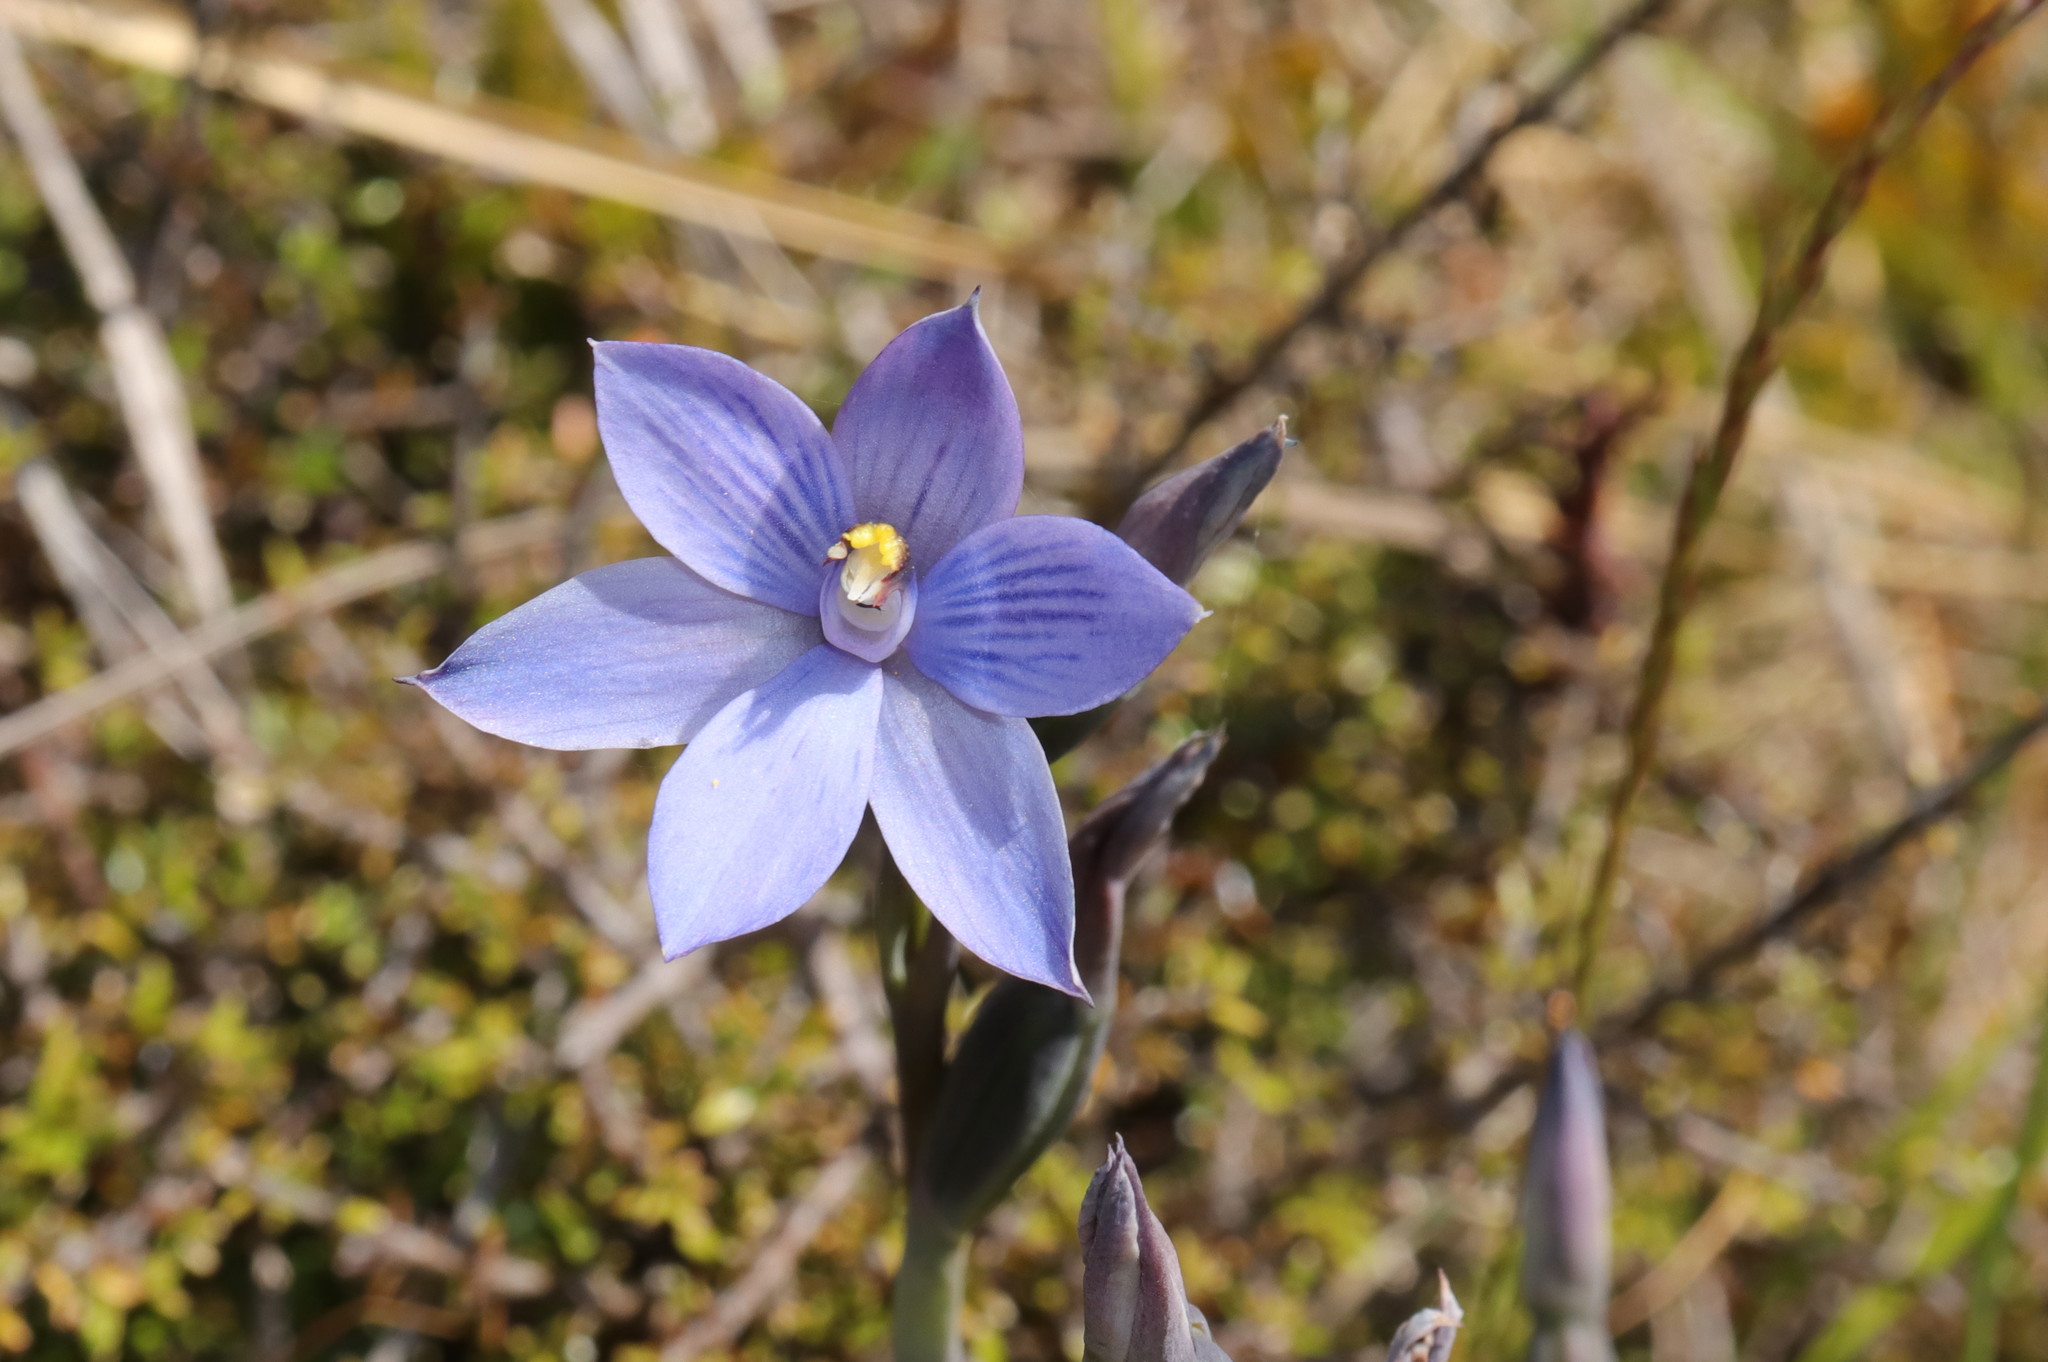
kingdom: Plantae
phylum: Tracheophyta
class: Liliopsida
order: Asparagales
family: Orchidaceae
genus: Thelymitra
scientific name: Thelymitra pulchella
